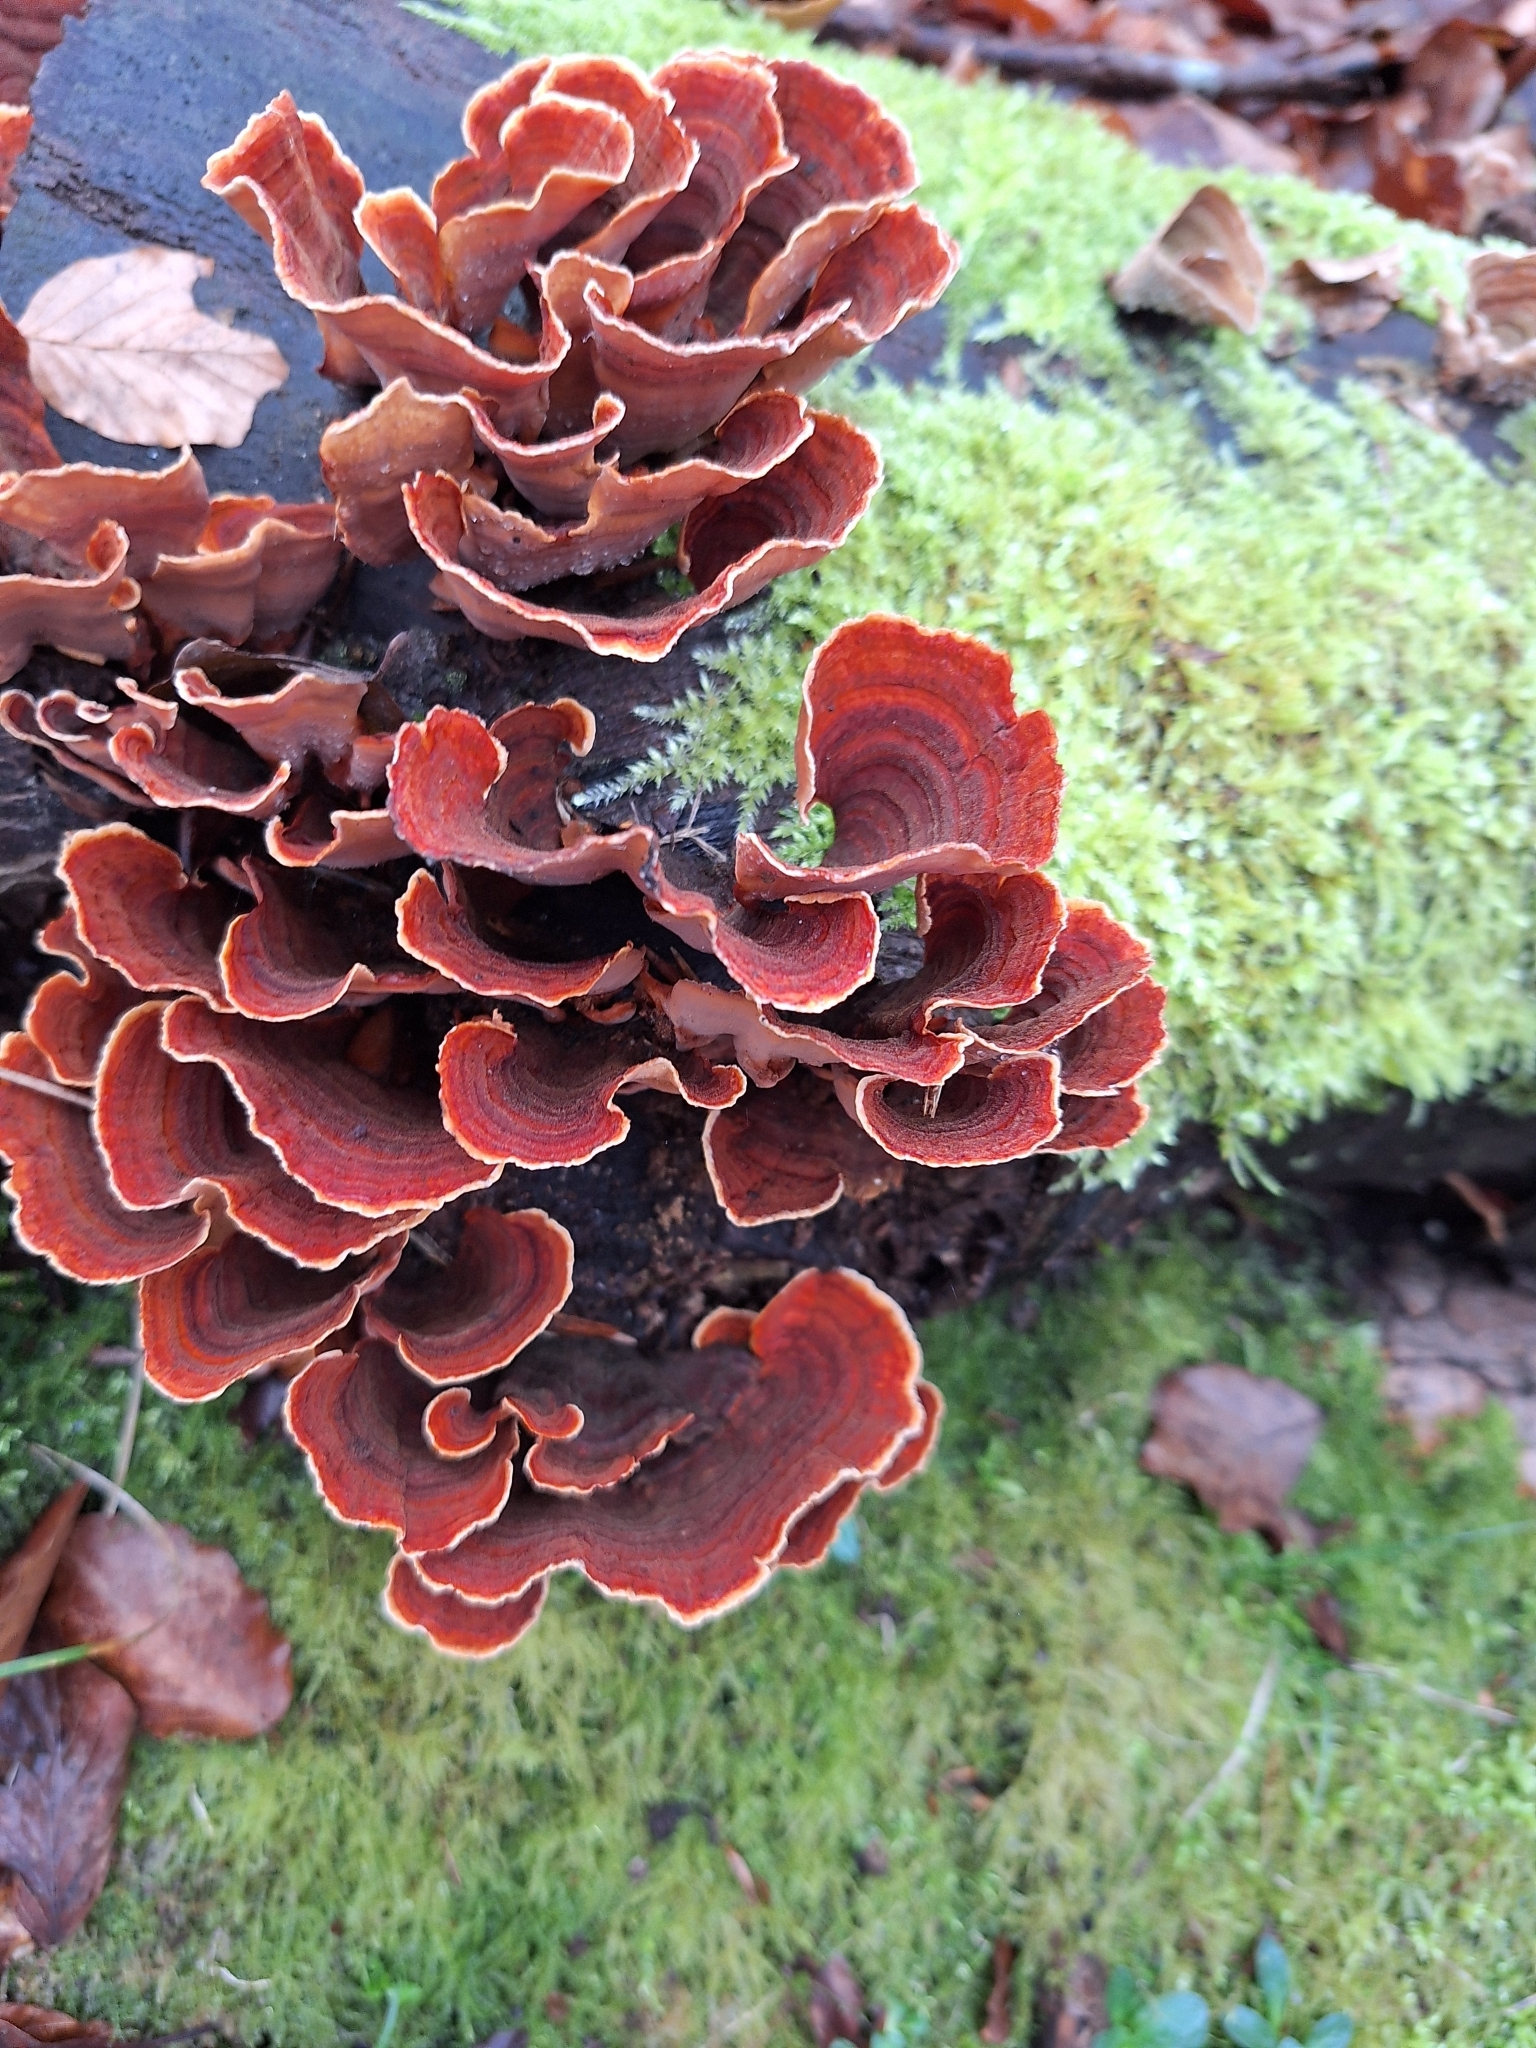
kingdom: Fungi
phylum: Basidiomycota
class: Agaricomycetes
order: Russulales
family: Stereaceae
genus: Stereum
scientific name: Stereum insignitum
